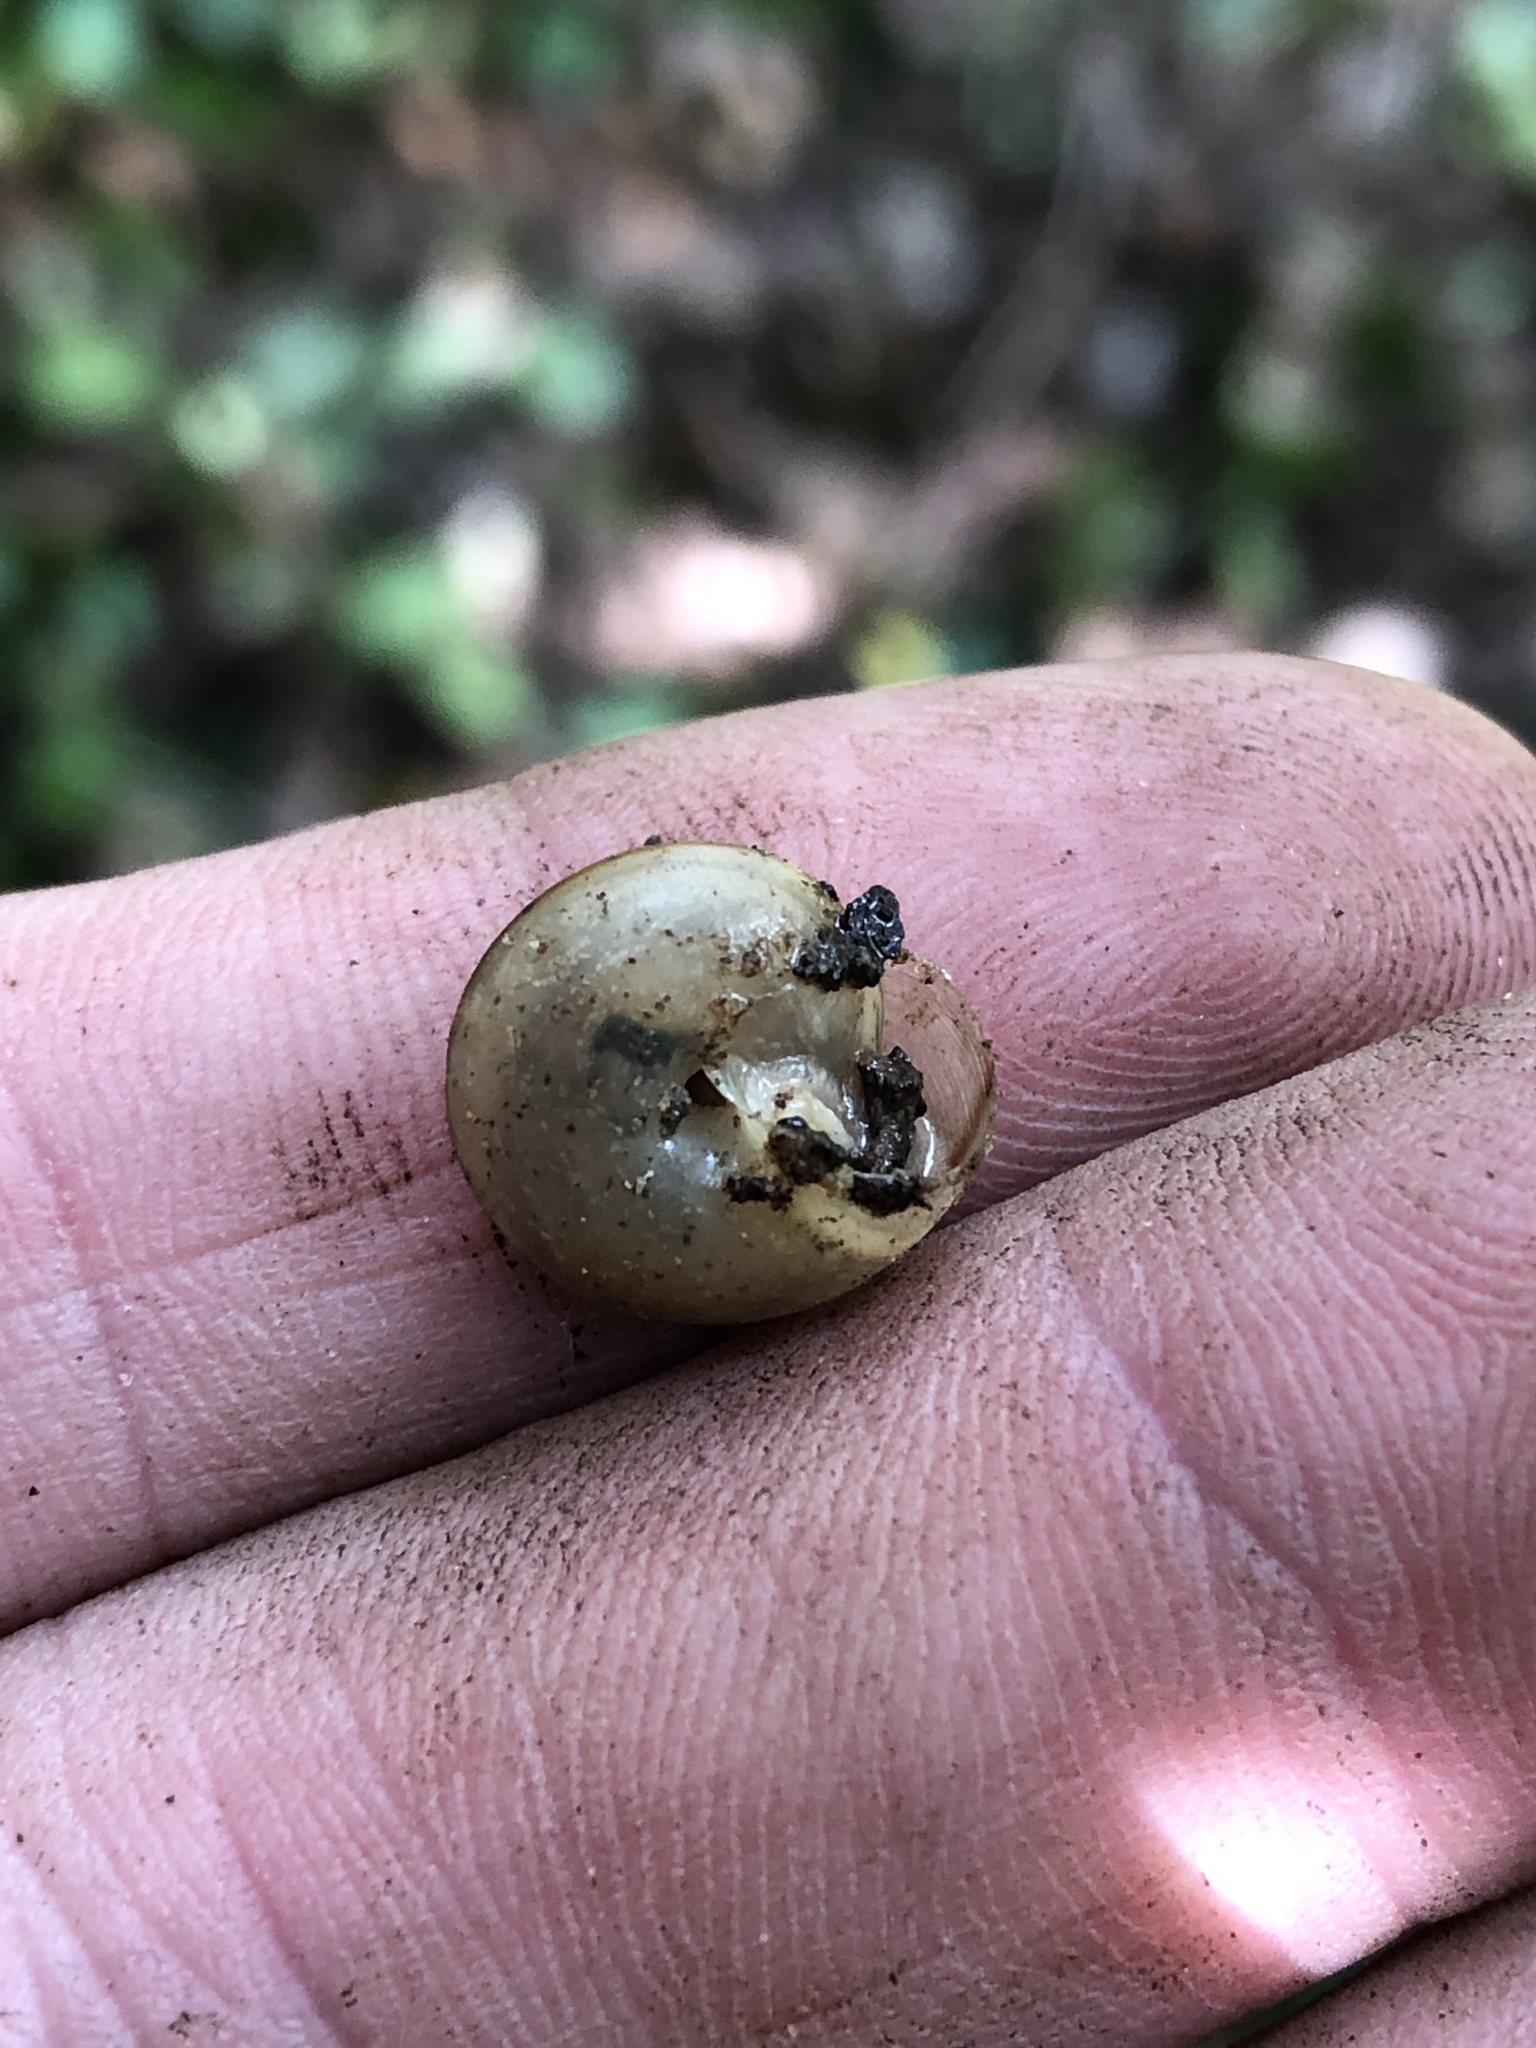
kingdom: Animalia
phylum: Mollusca
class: Gastropoda
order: Stylommatophora
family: Camaenidae
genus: Bradybaena
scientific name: Bradybaena similaris
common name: Asian trampsnail
